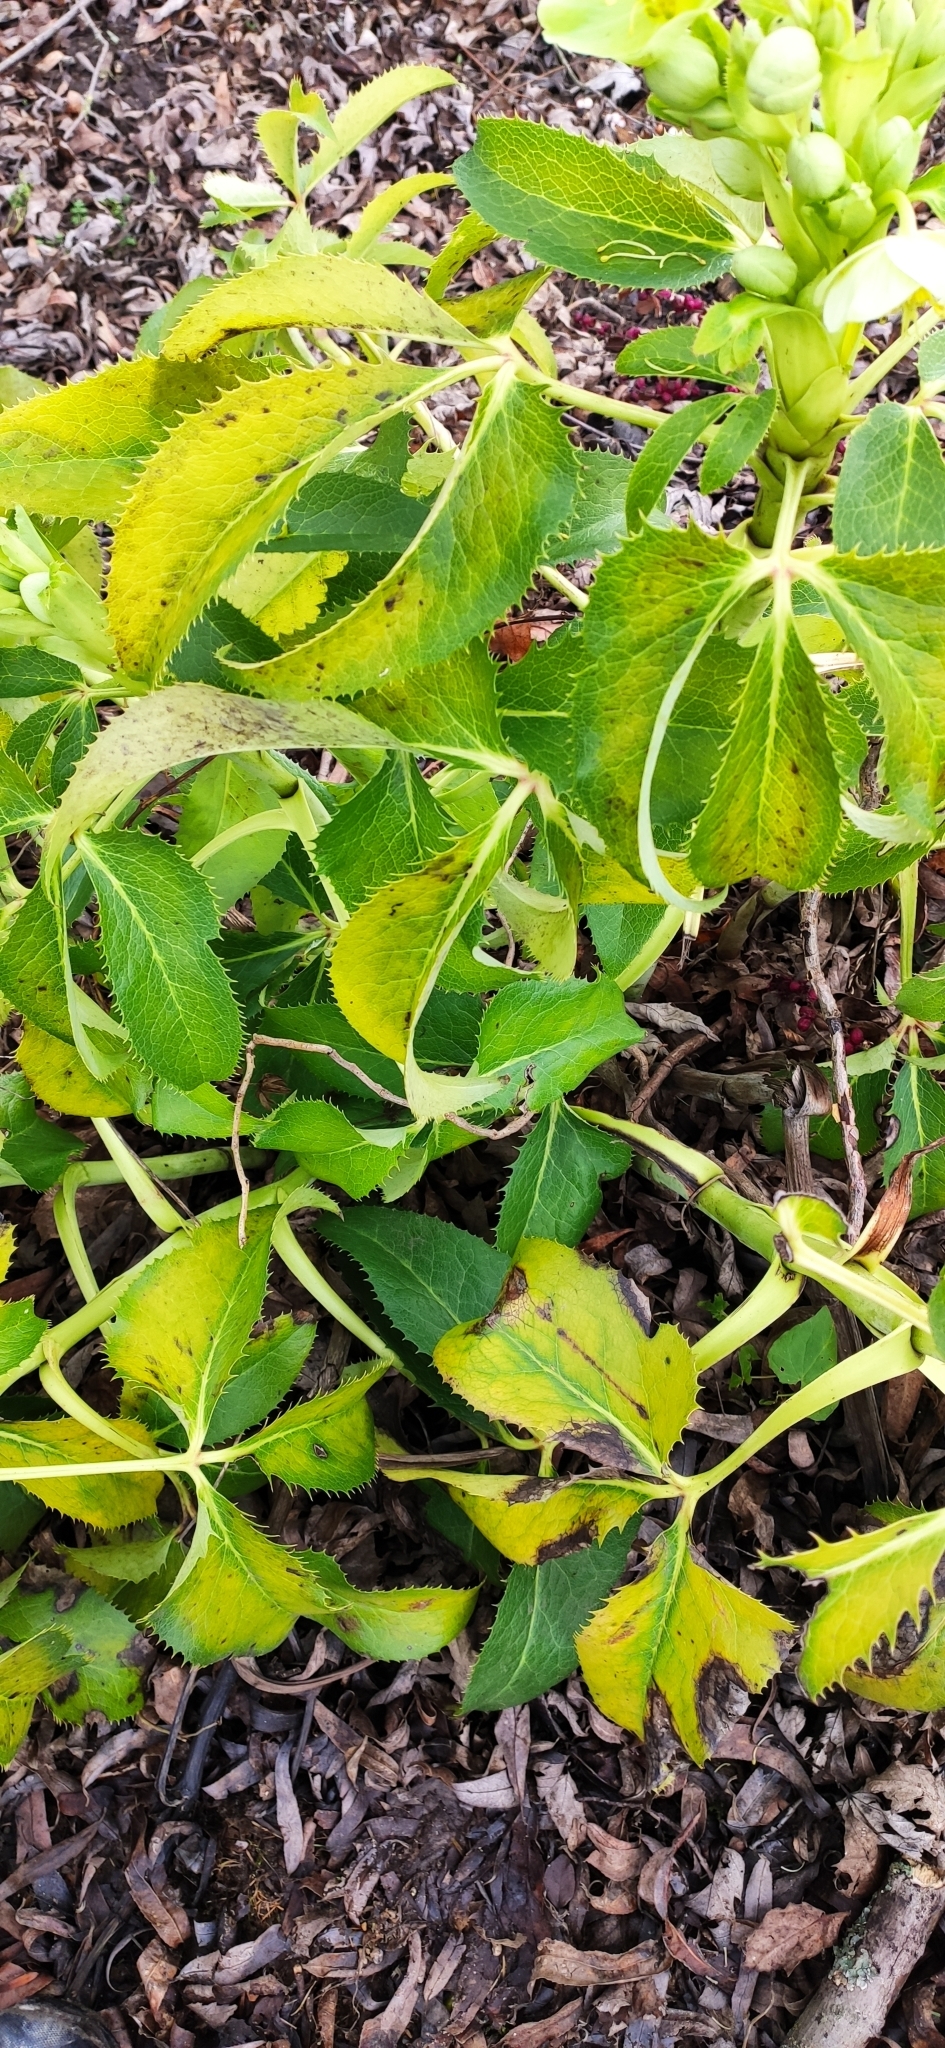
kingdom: Plantae
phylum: Tracheophyta
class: Magnoliopsida
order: Ranunculales
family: Ranunculaceae
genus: Helleborus
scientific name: Helleborus viridis
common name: Green hellebore
